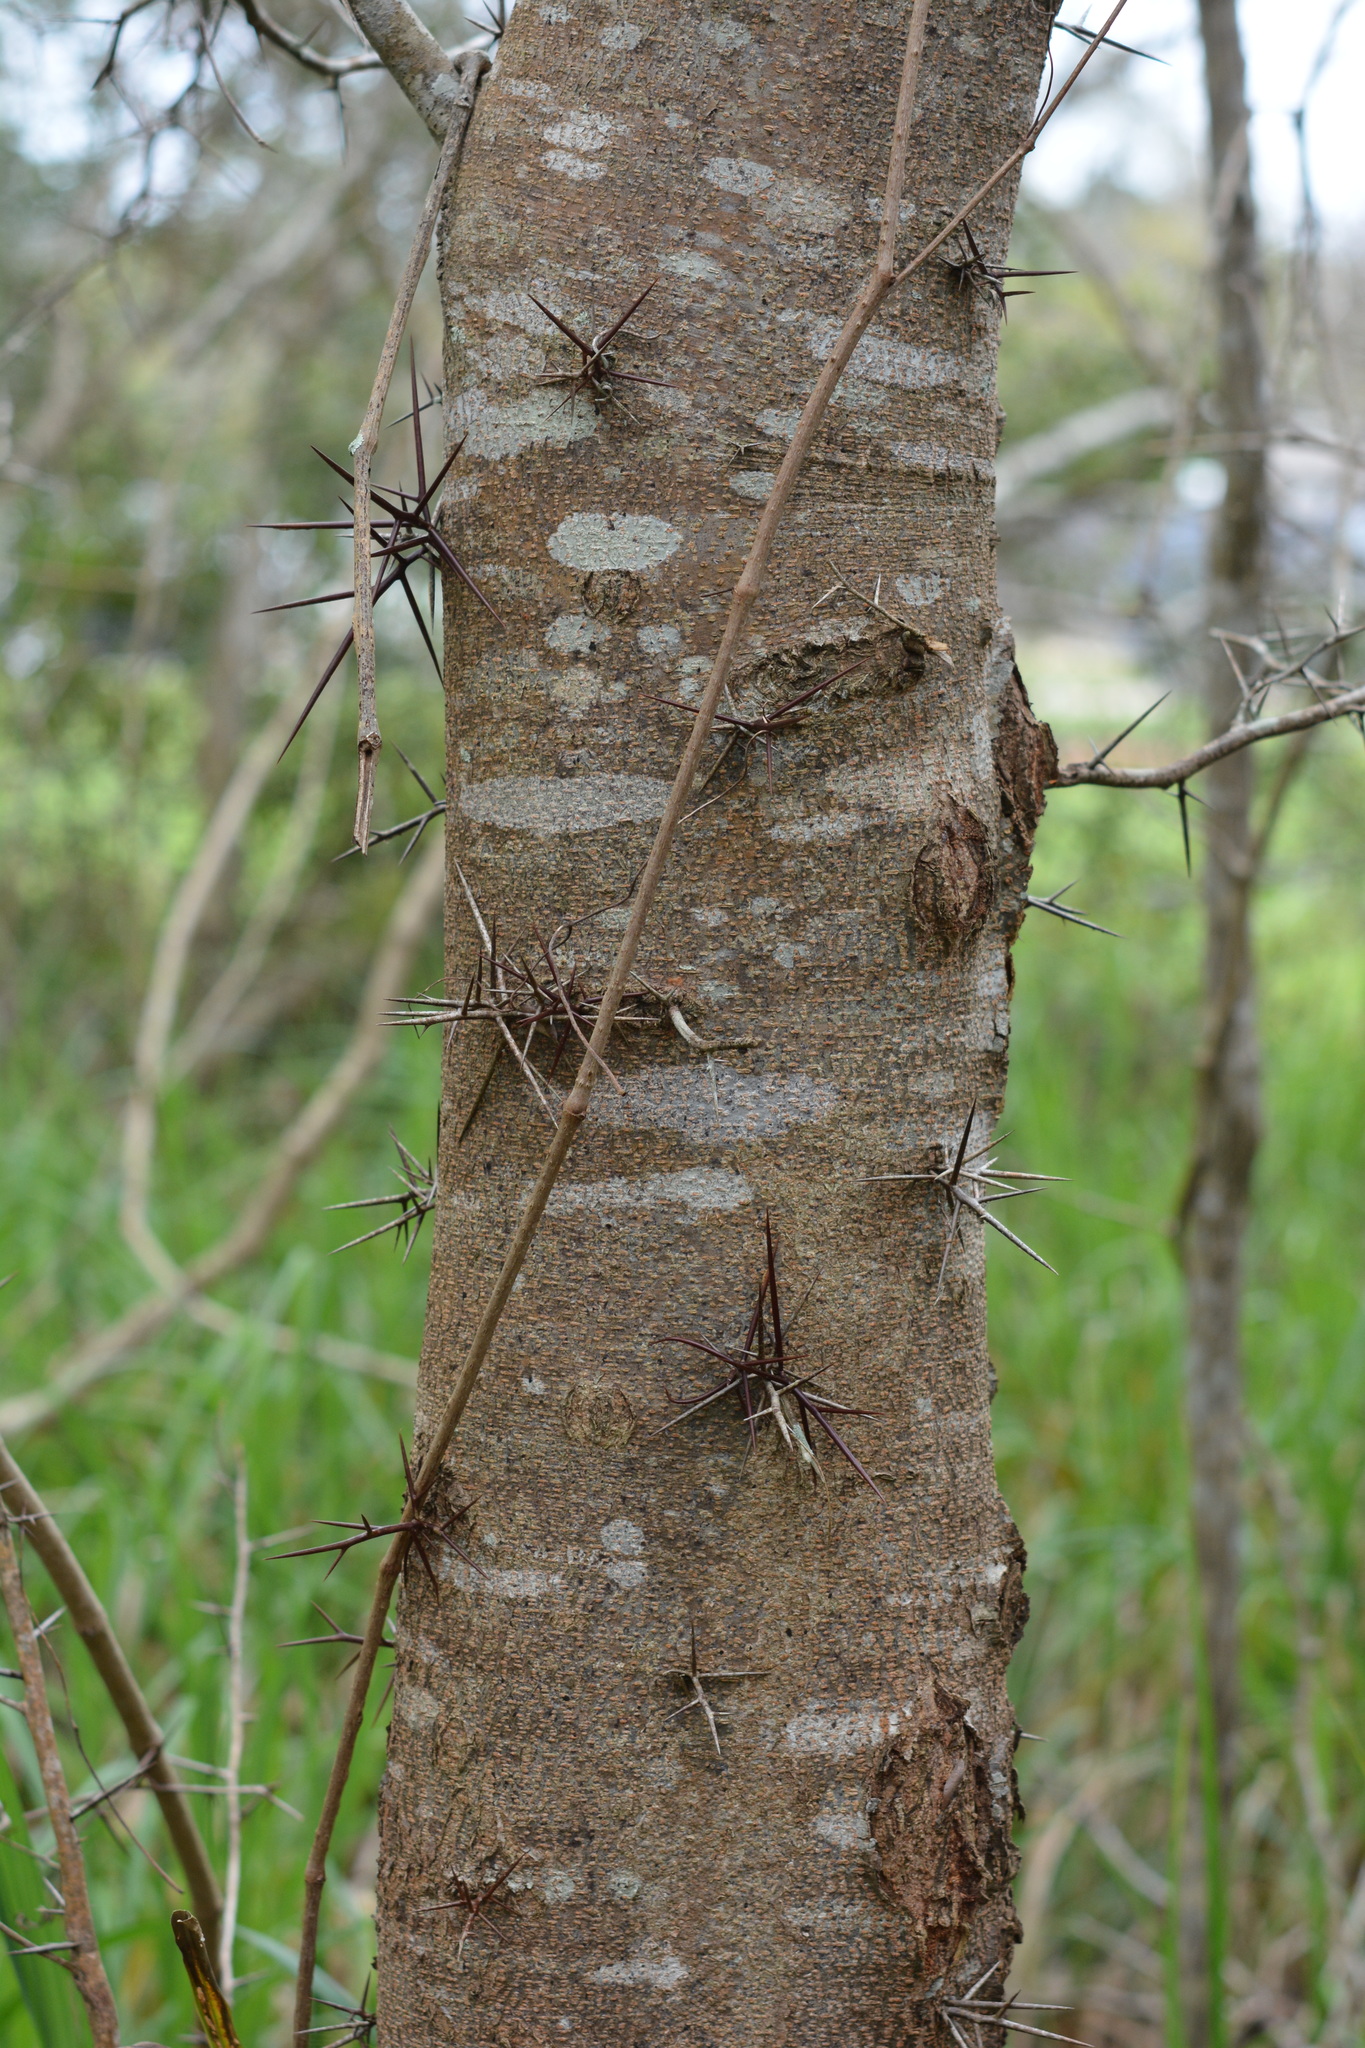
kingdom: Plantae
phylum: Tracheophyta
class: Magnoliopsida
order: Fabales
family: Fabaceae
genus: Gleditsia
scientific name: Gleditsia triacanthos
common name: Common honeylocust
